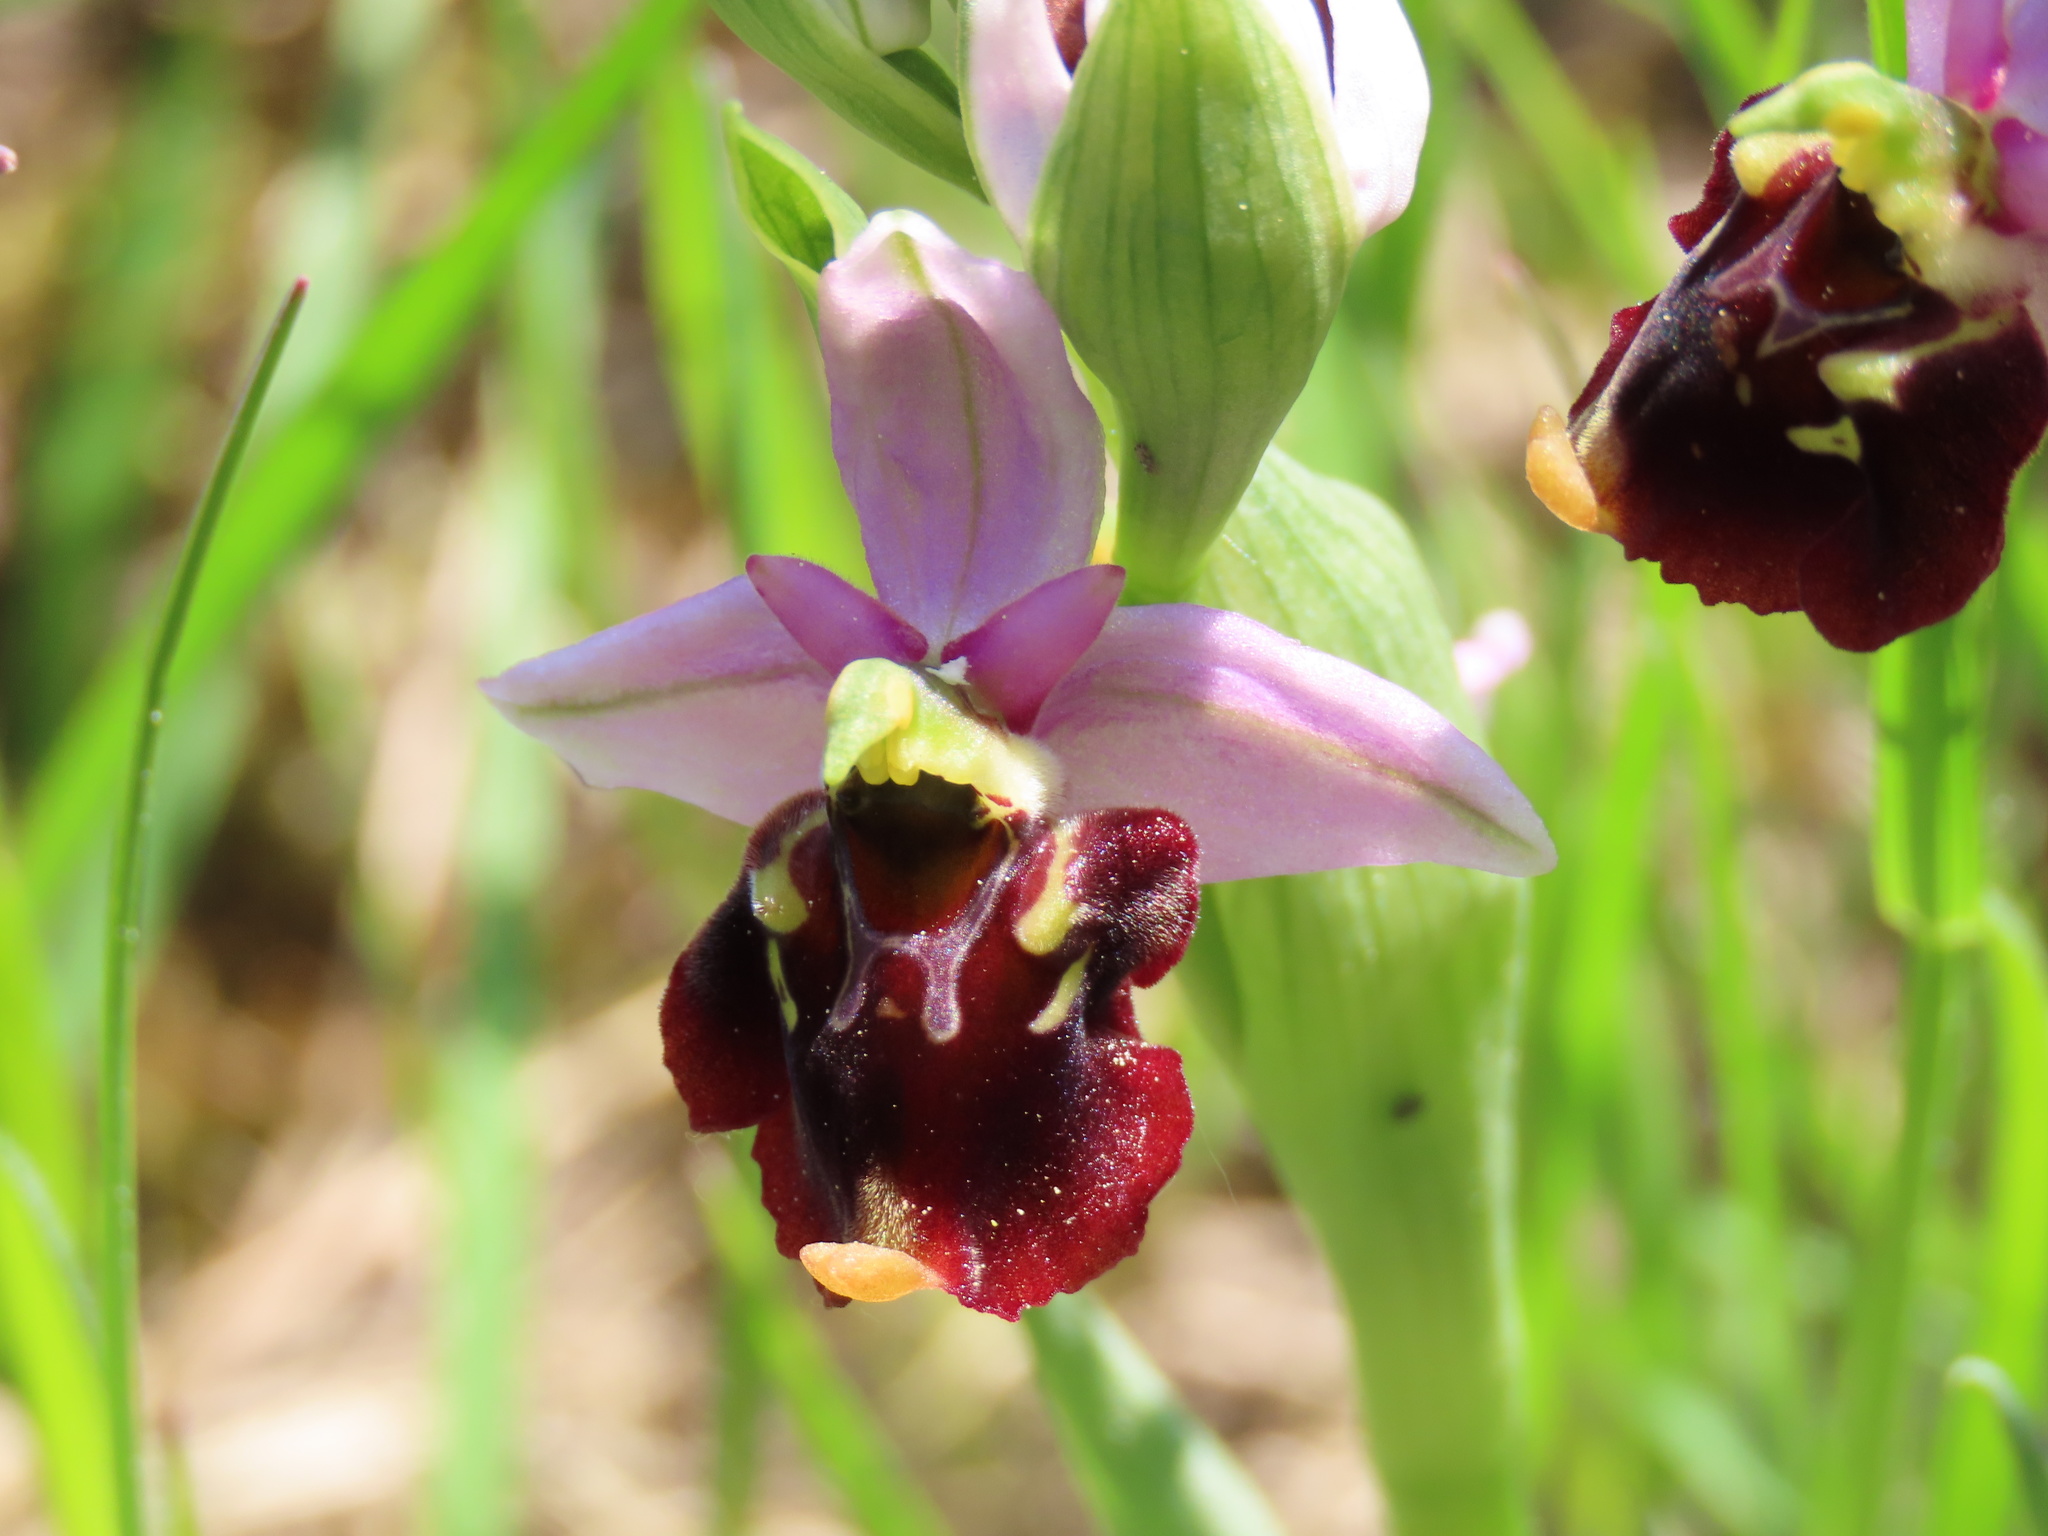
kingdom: Plantae
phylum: Tracheophyta
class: Liliopsida
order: Asparagales
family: Orchidaceae
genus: Ophrys
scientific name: Ophrys holosericea
